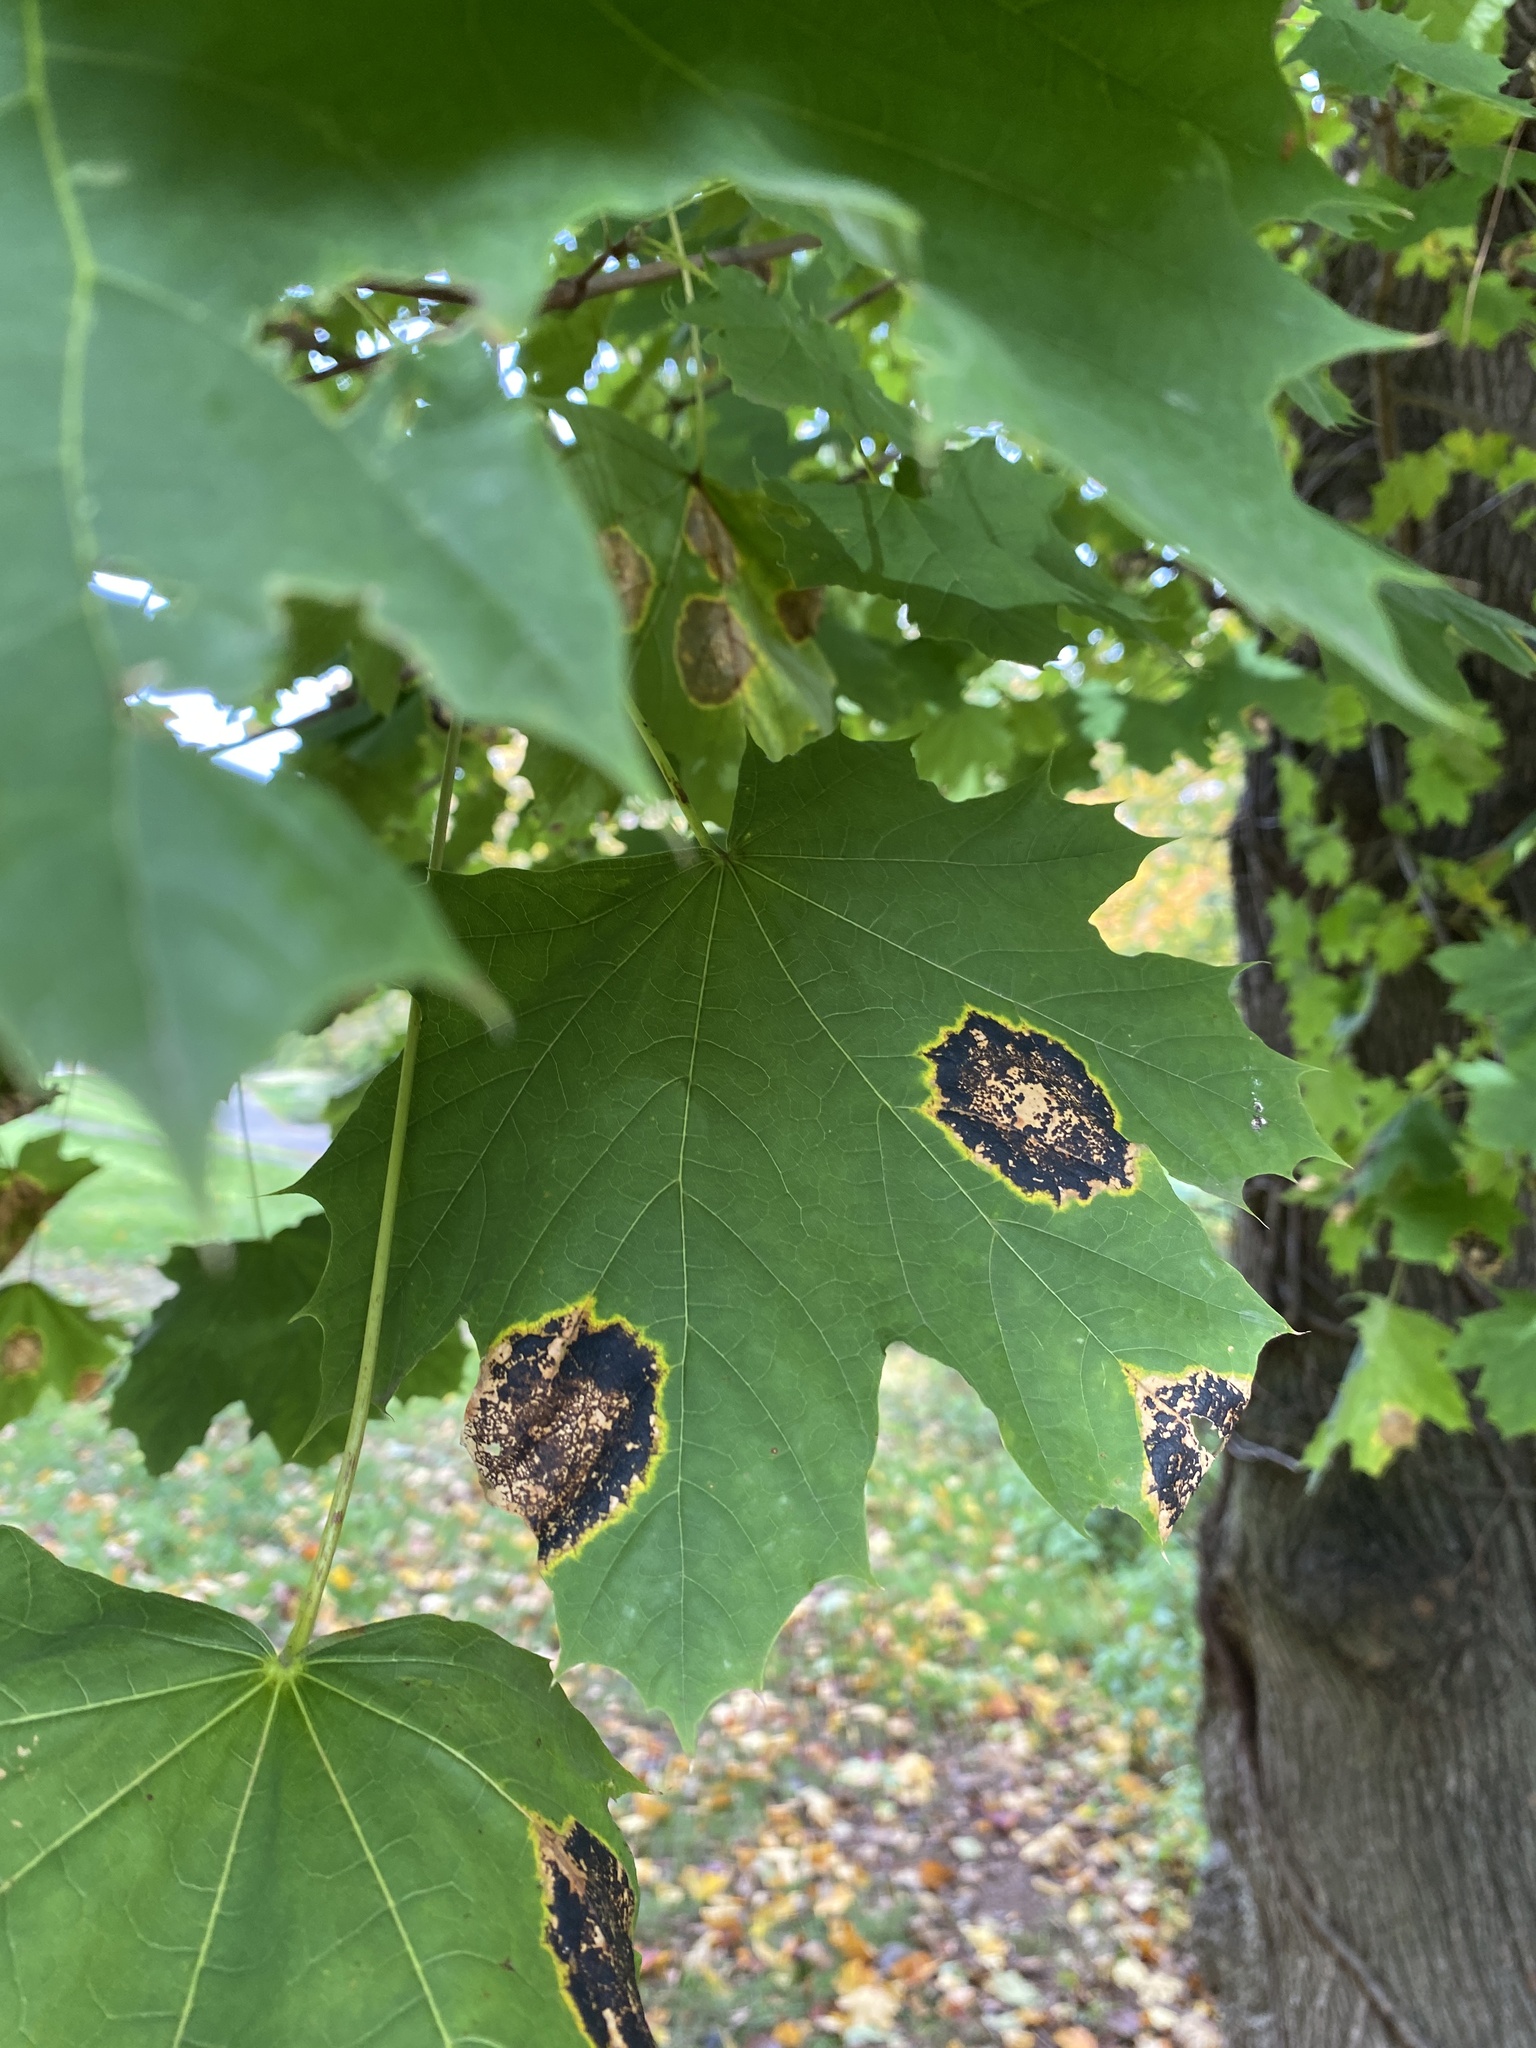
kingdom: Fungi
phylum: Ascomycota
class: Leotiomycetes
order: Rhytismatales
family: Rhytismataceae
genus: Rhytisma
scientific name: Rhytisma acerinum
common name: European tar spot
